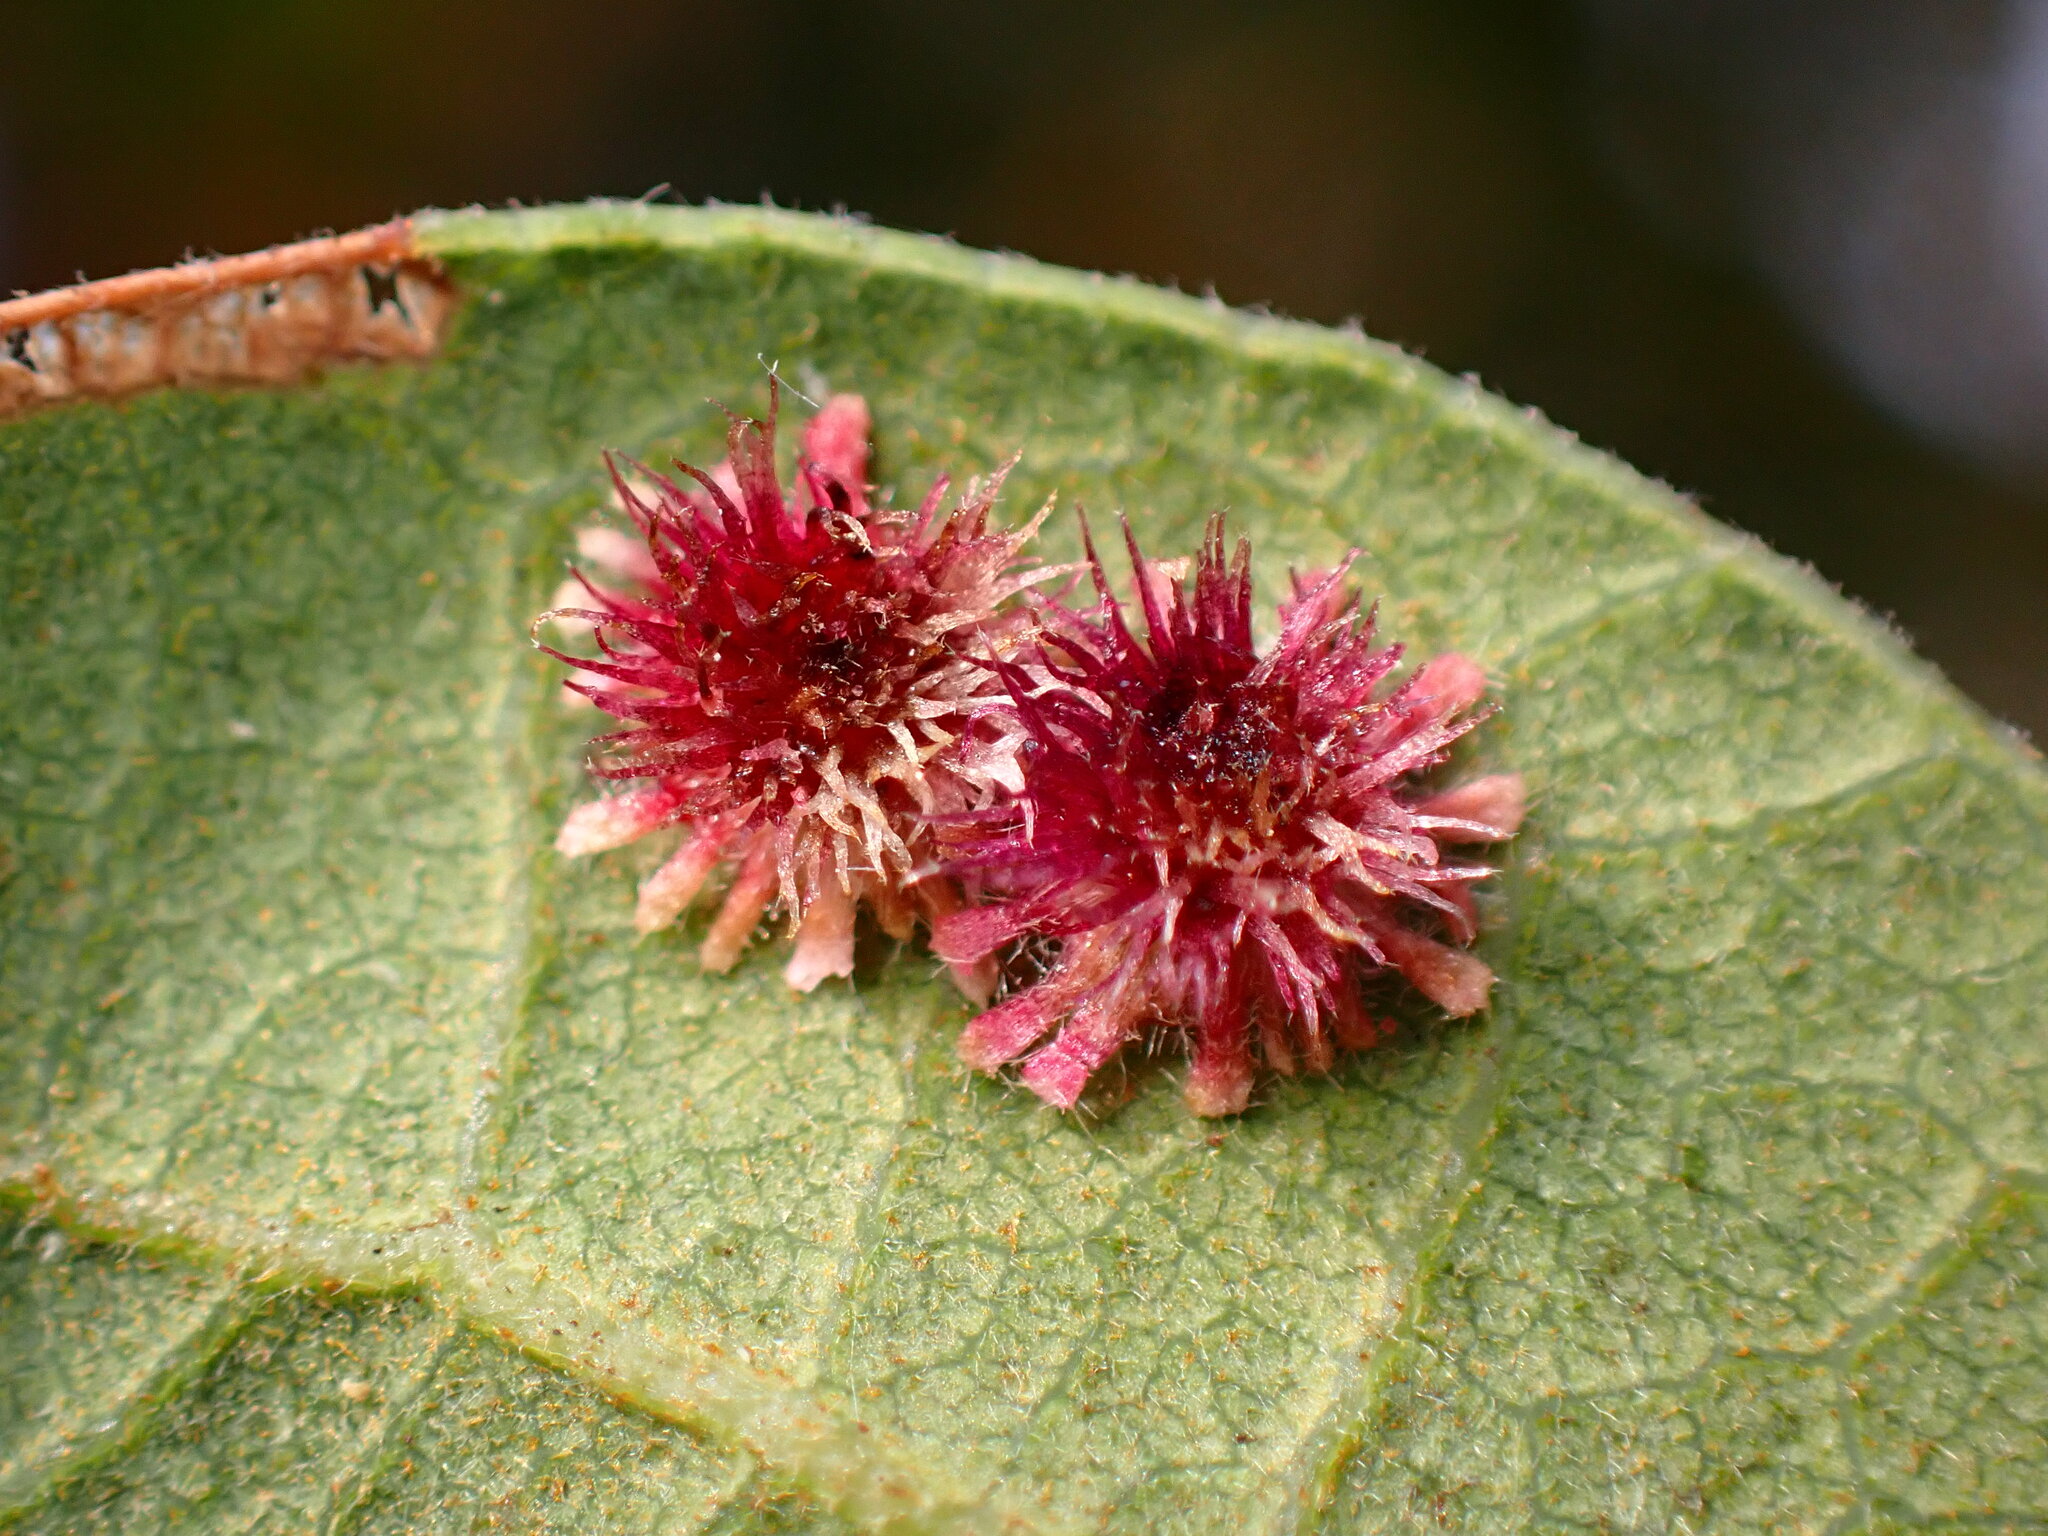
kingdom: Animalia
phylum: Arthropoda
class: Insecta
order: Hymenoptera
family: Cynipidae
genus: Andricus
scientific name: Andricus
